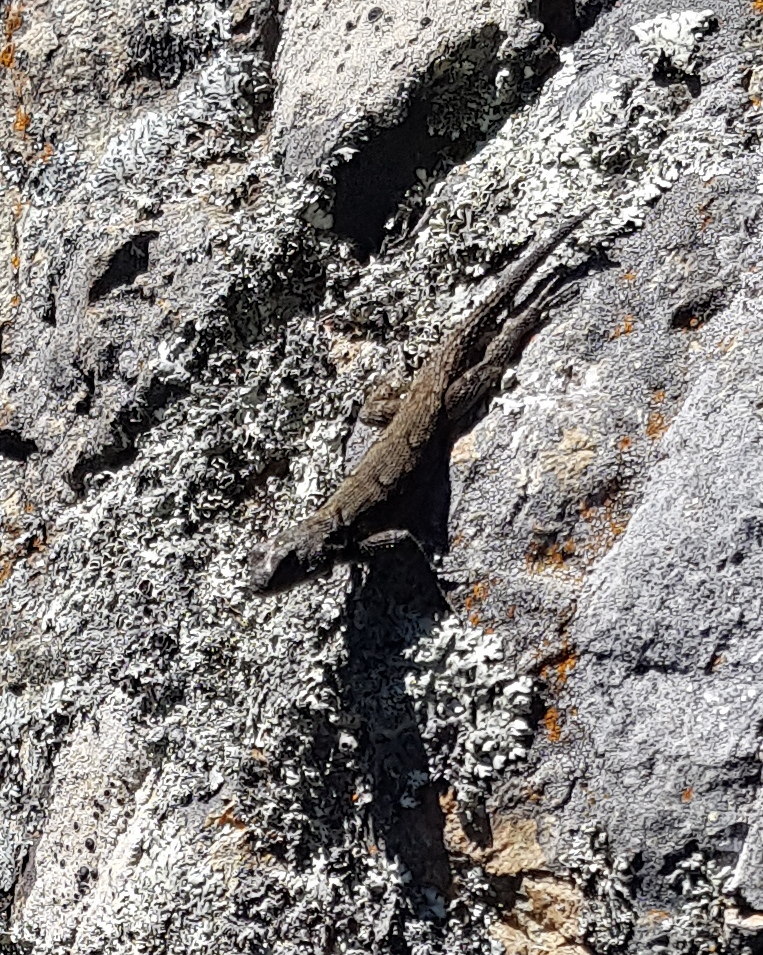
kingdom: Animalia
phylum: Chordata
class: Squamata
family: Phrynosomatidae
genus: Sceloporus
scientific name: Sceloporus grammicus
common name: Mesquite lizard
